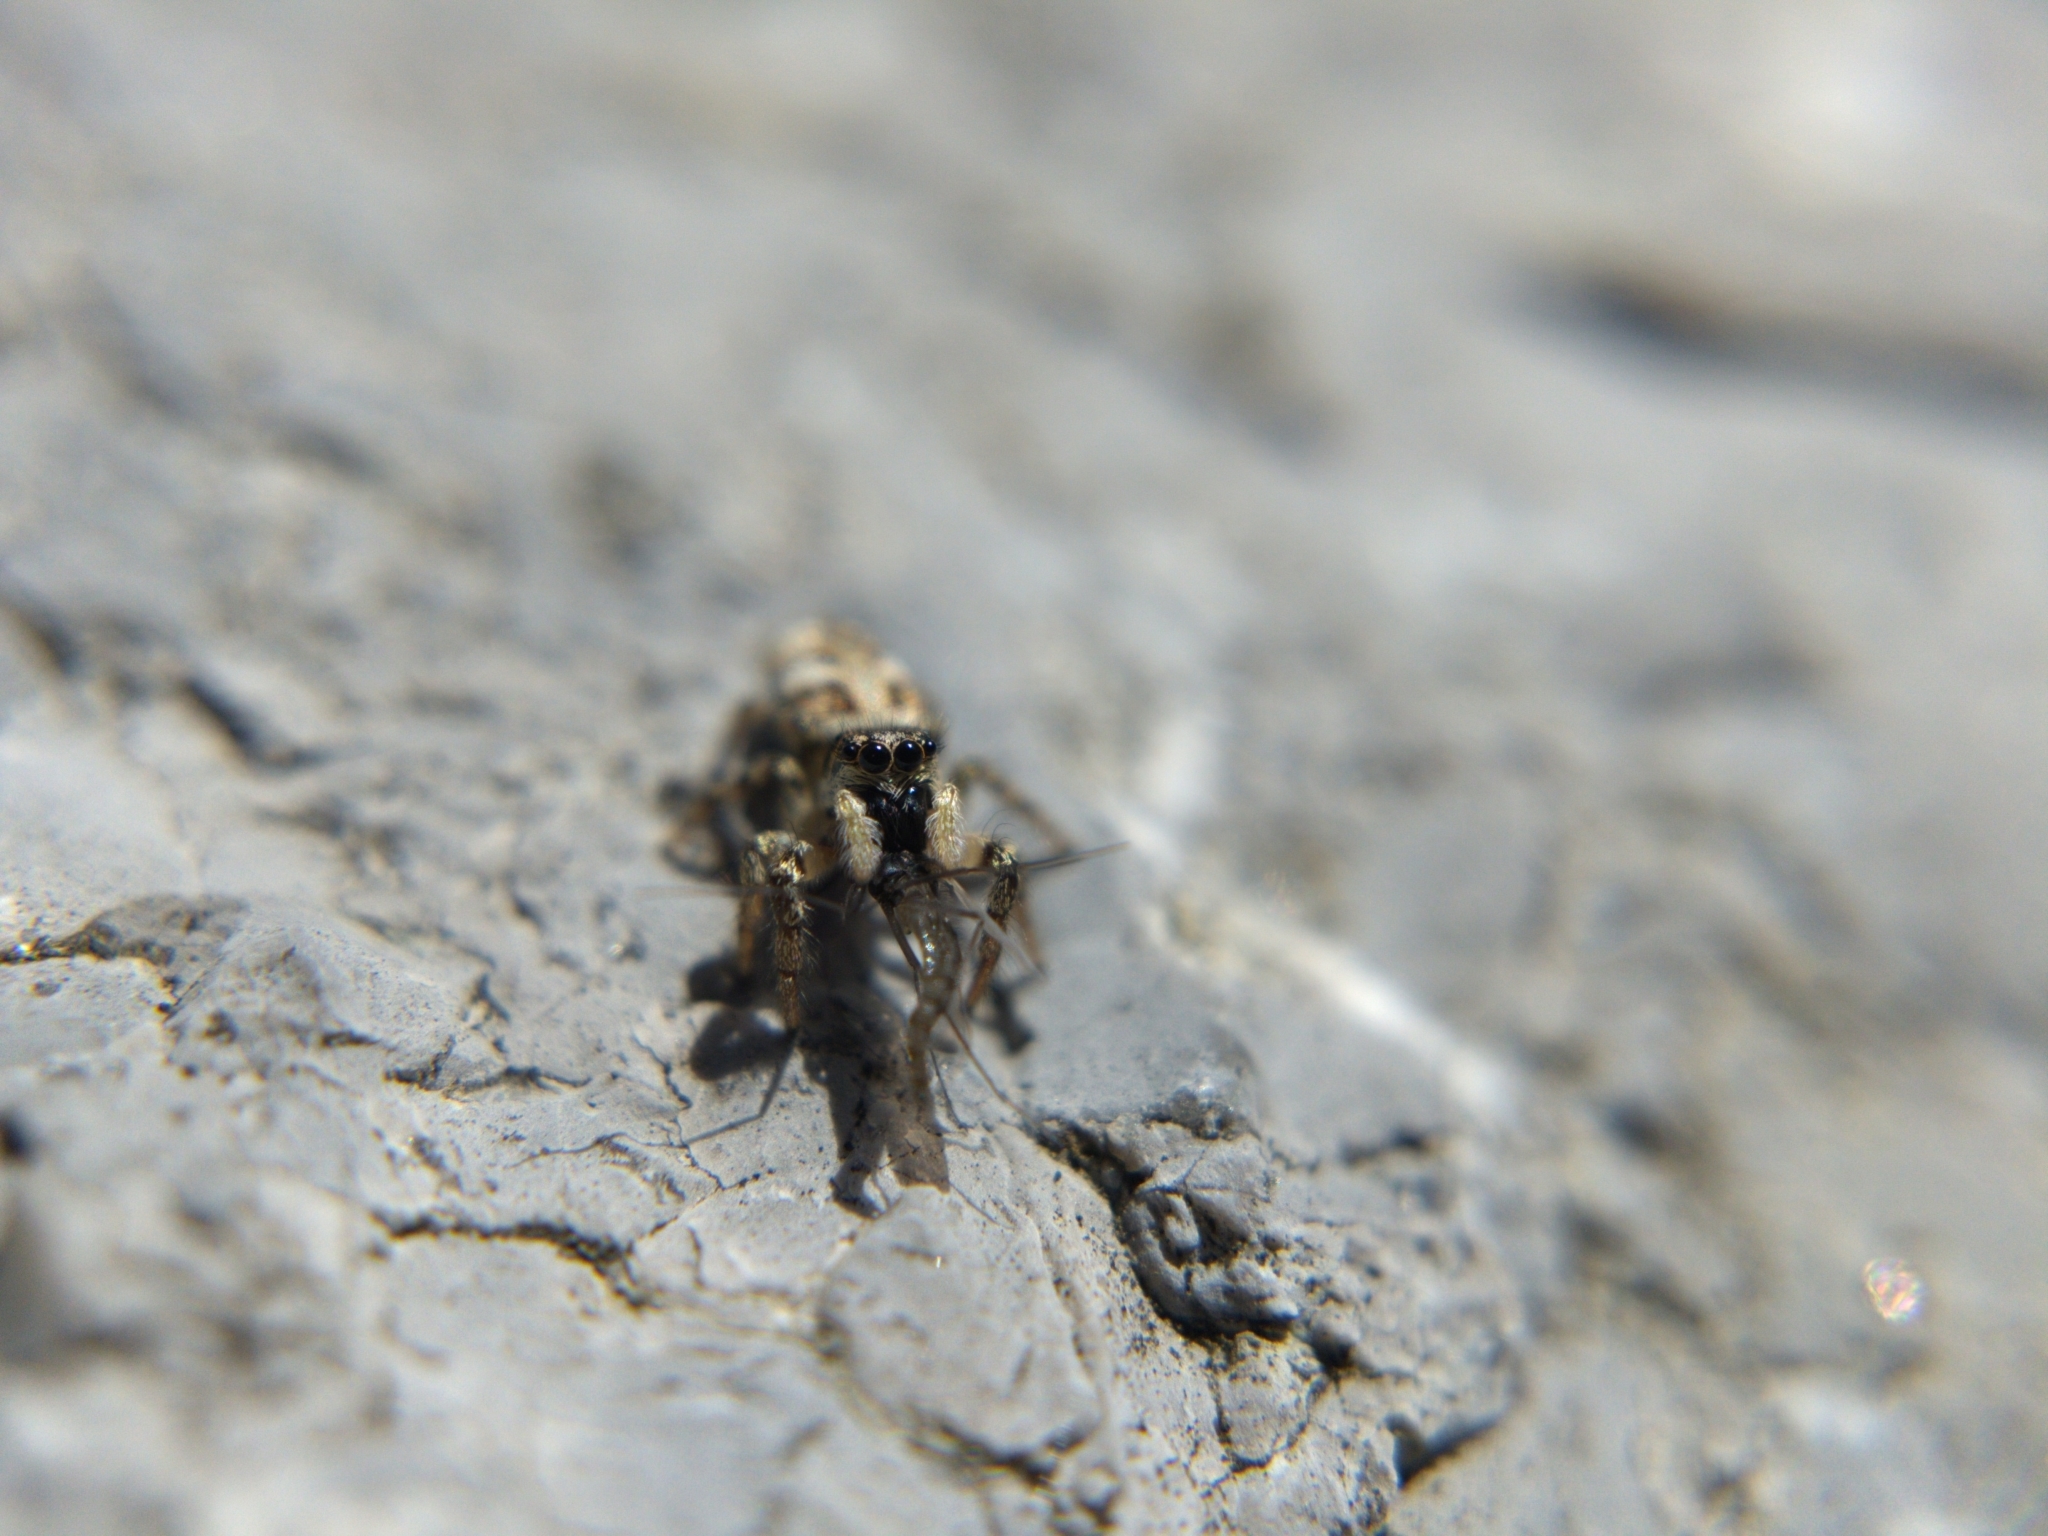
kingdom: Animalia
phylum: Arthropoda
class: Arachnida
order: Araneae
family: Salticidae
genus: Salticus
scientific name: Salticus scenicus
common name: Zebra jumper
